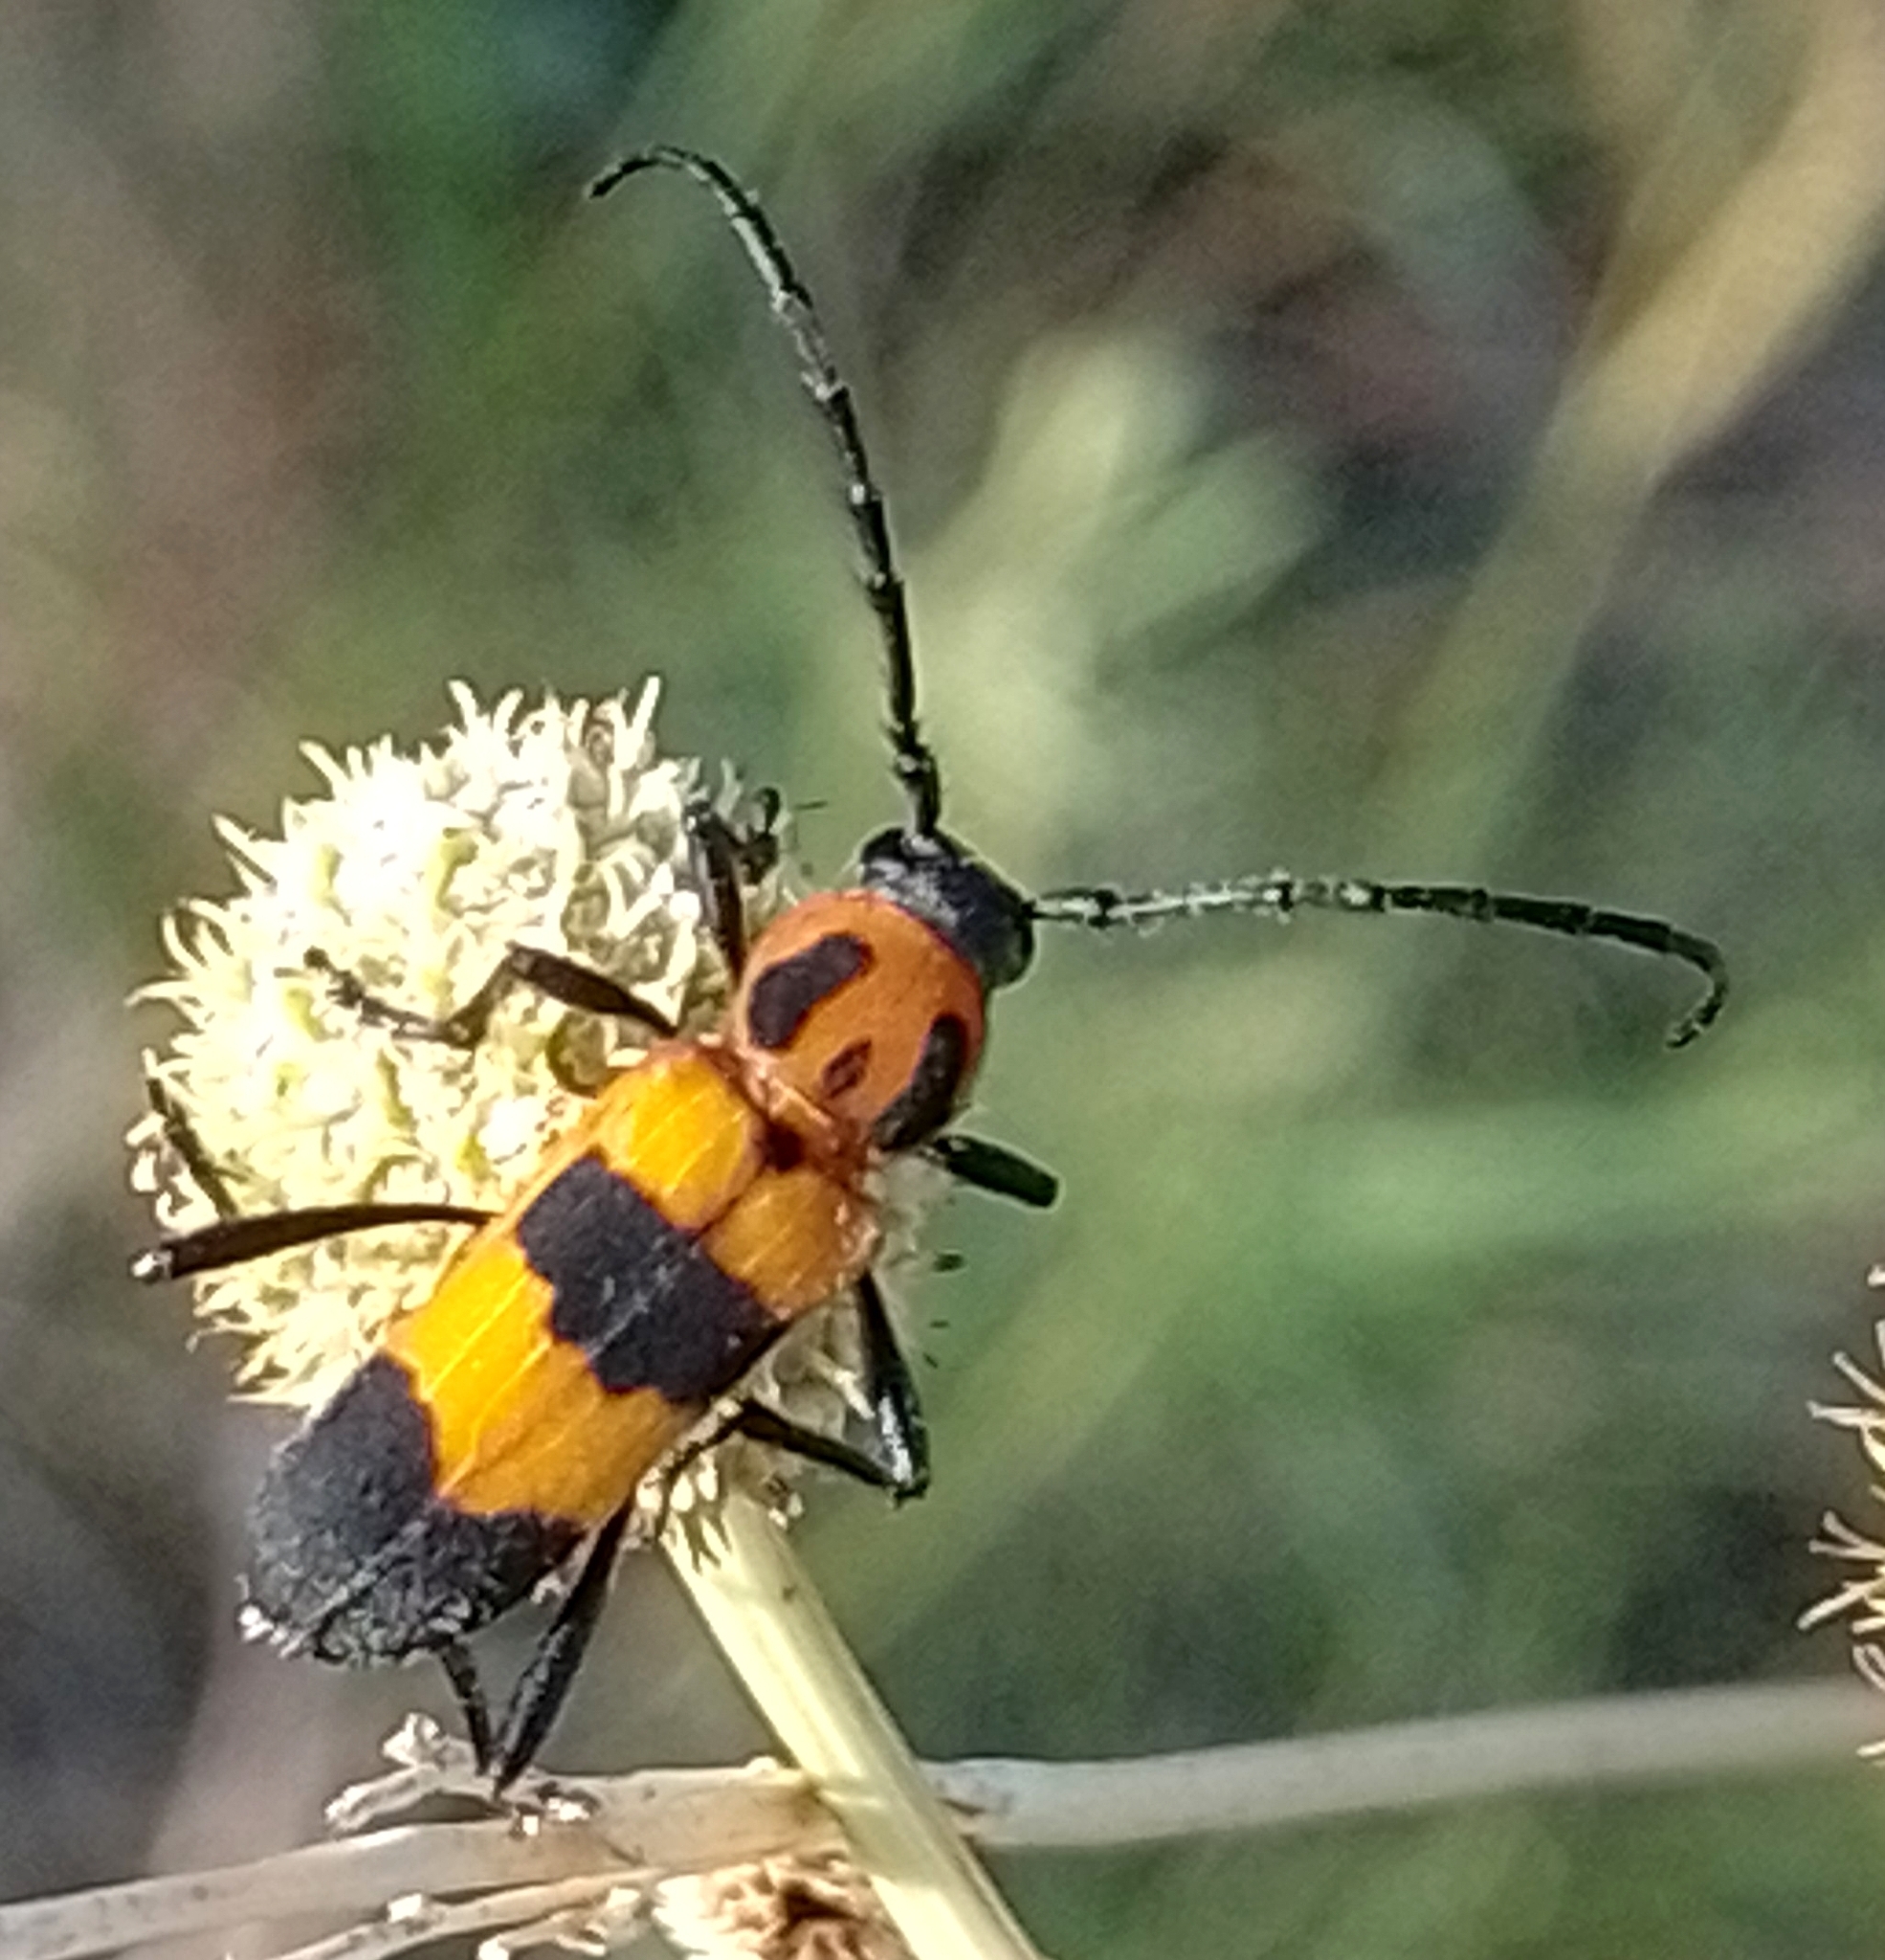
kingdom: Animalia
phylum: Arthropoda
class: Insecta
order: Coleoptera
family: Cerambycidae
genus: Erythrochiton
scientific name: Erythrochiton jucundum
